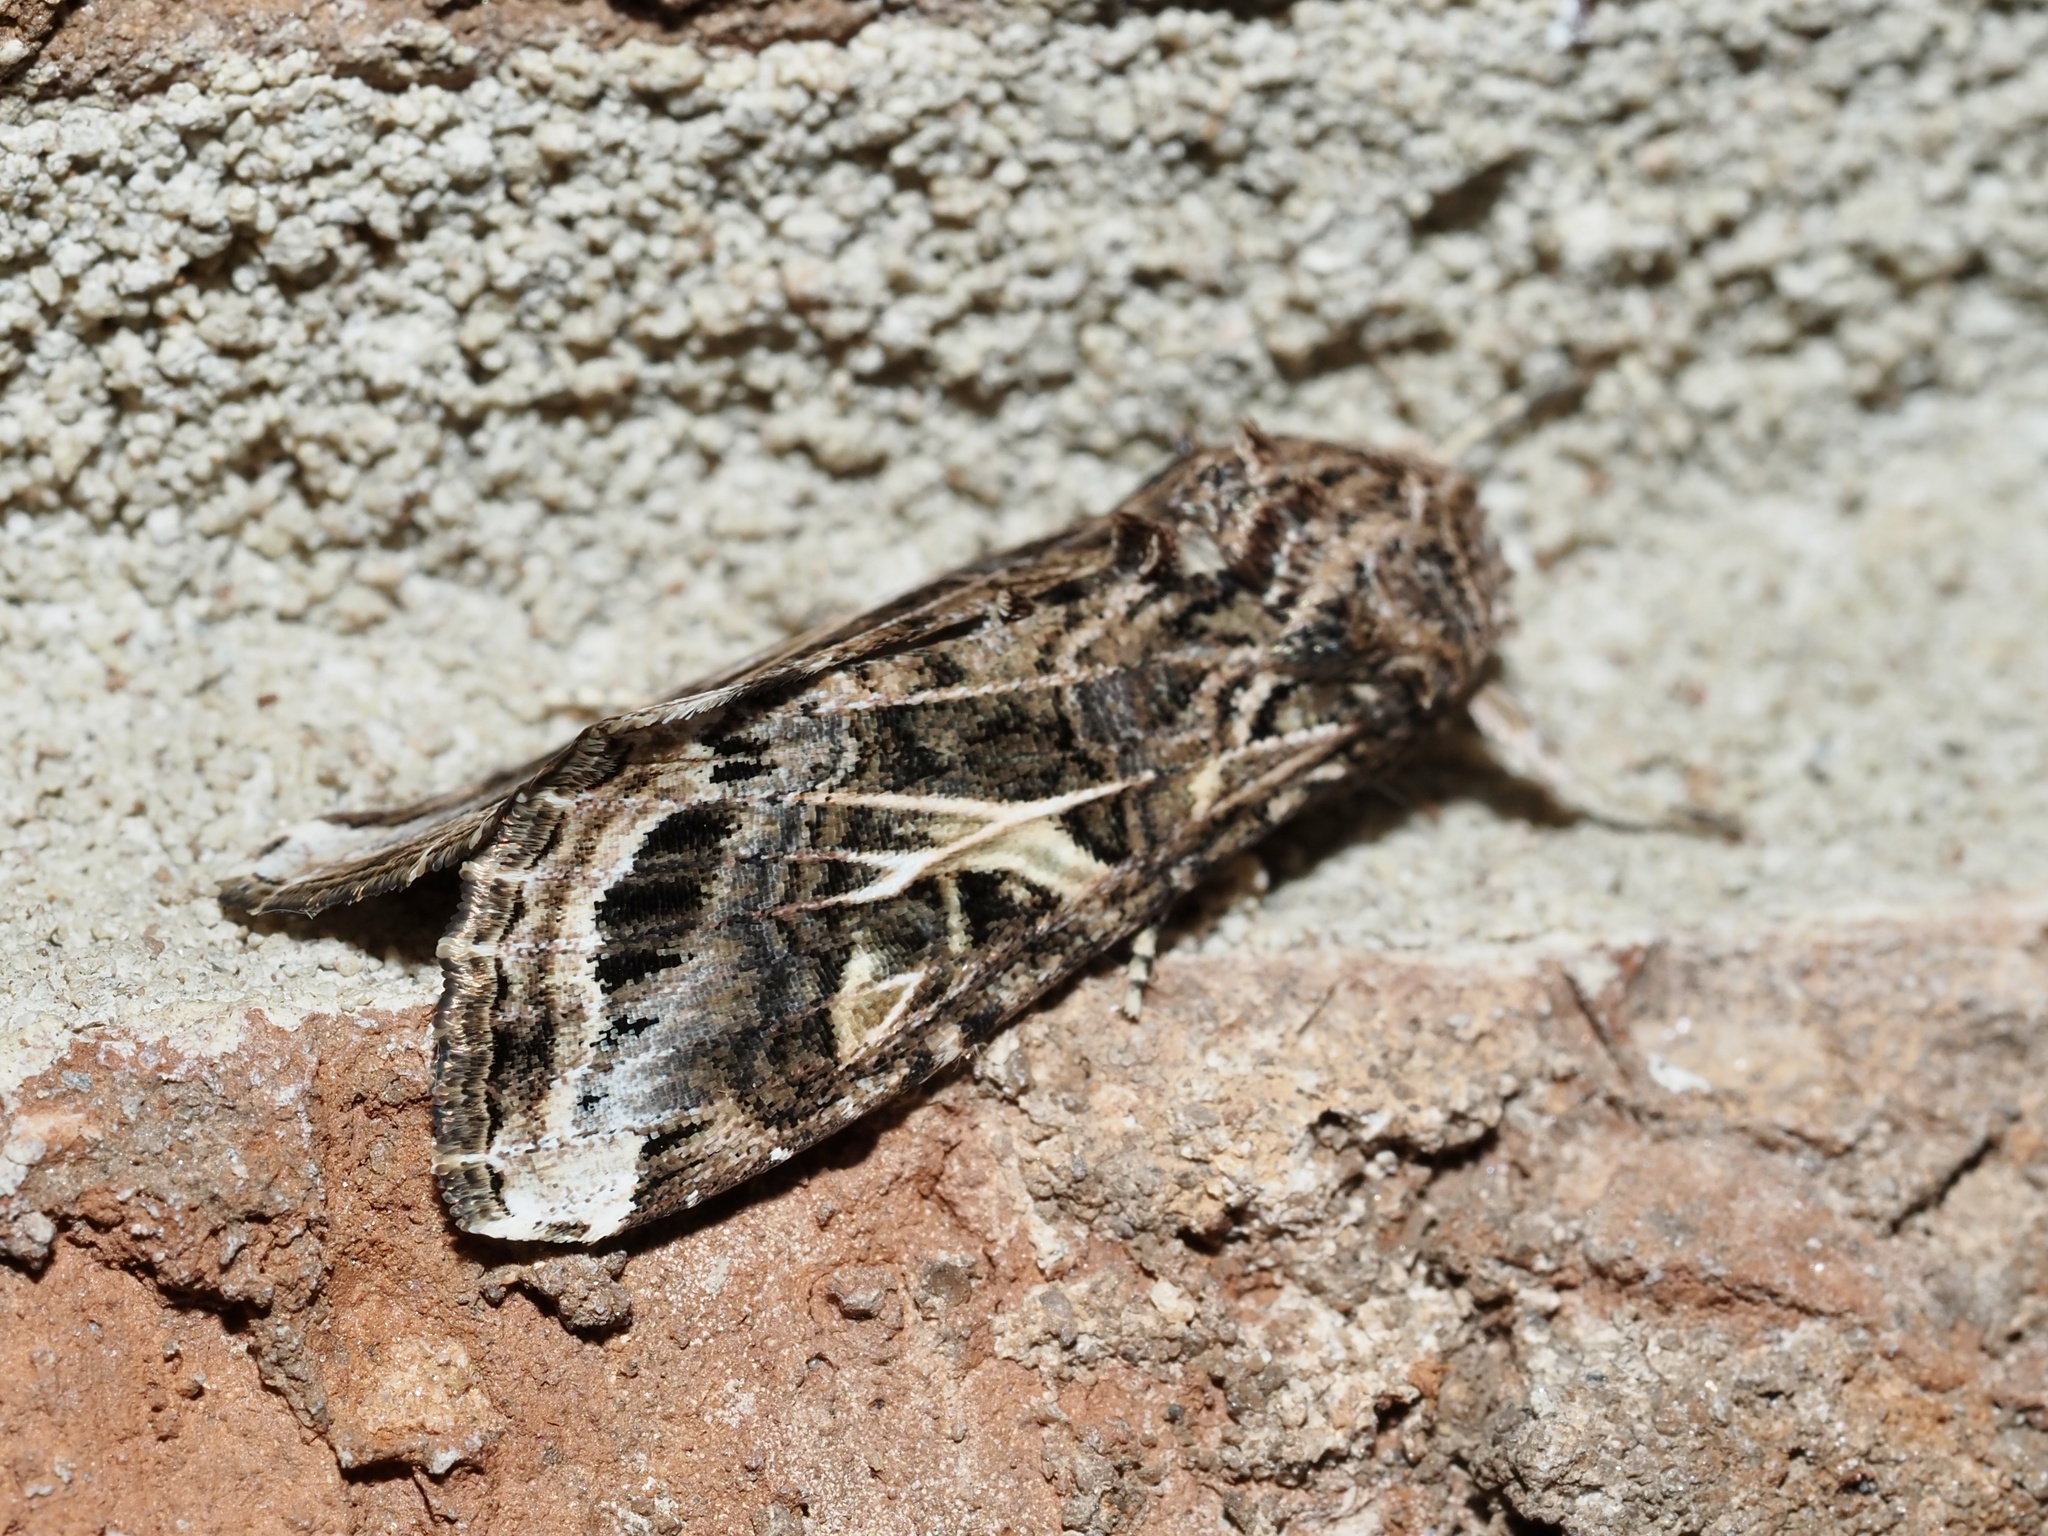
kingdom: Animalia
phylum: Arthropoda
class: Insecta
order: Lepidoptera
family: Noctuidae
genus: Spodoptera
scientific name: Spodoptera ornithogalli
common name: Yellow-striped armyworm
